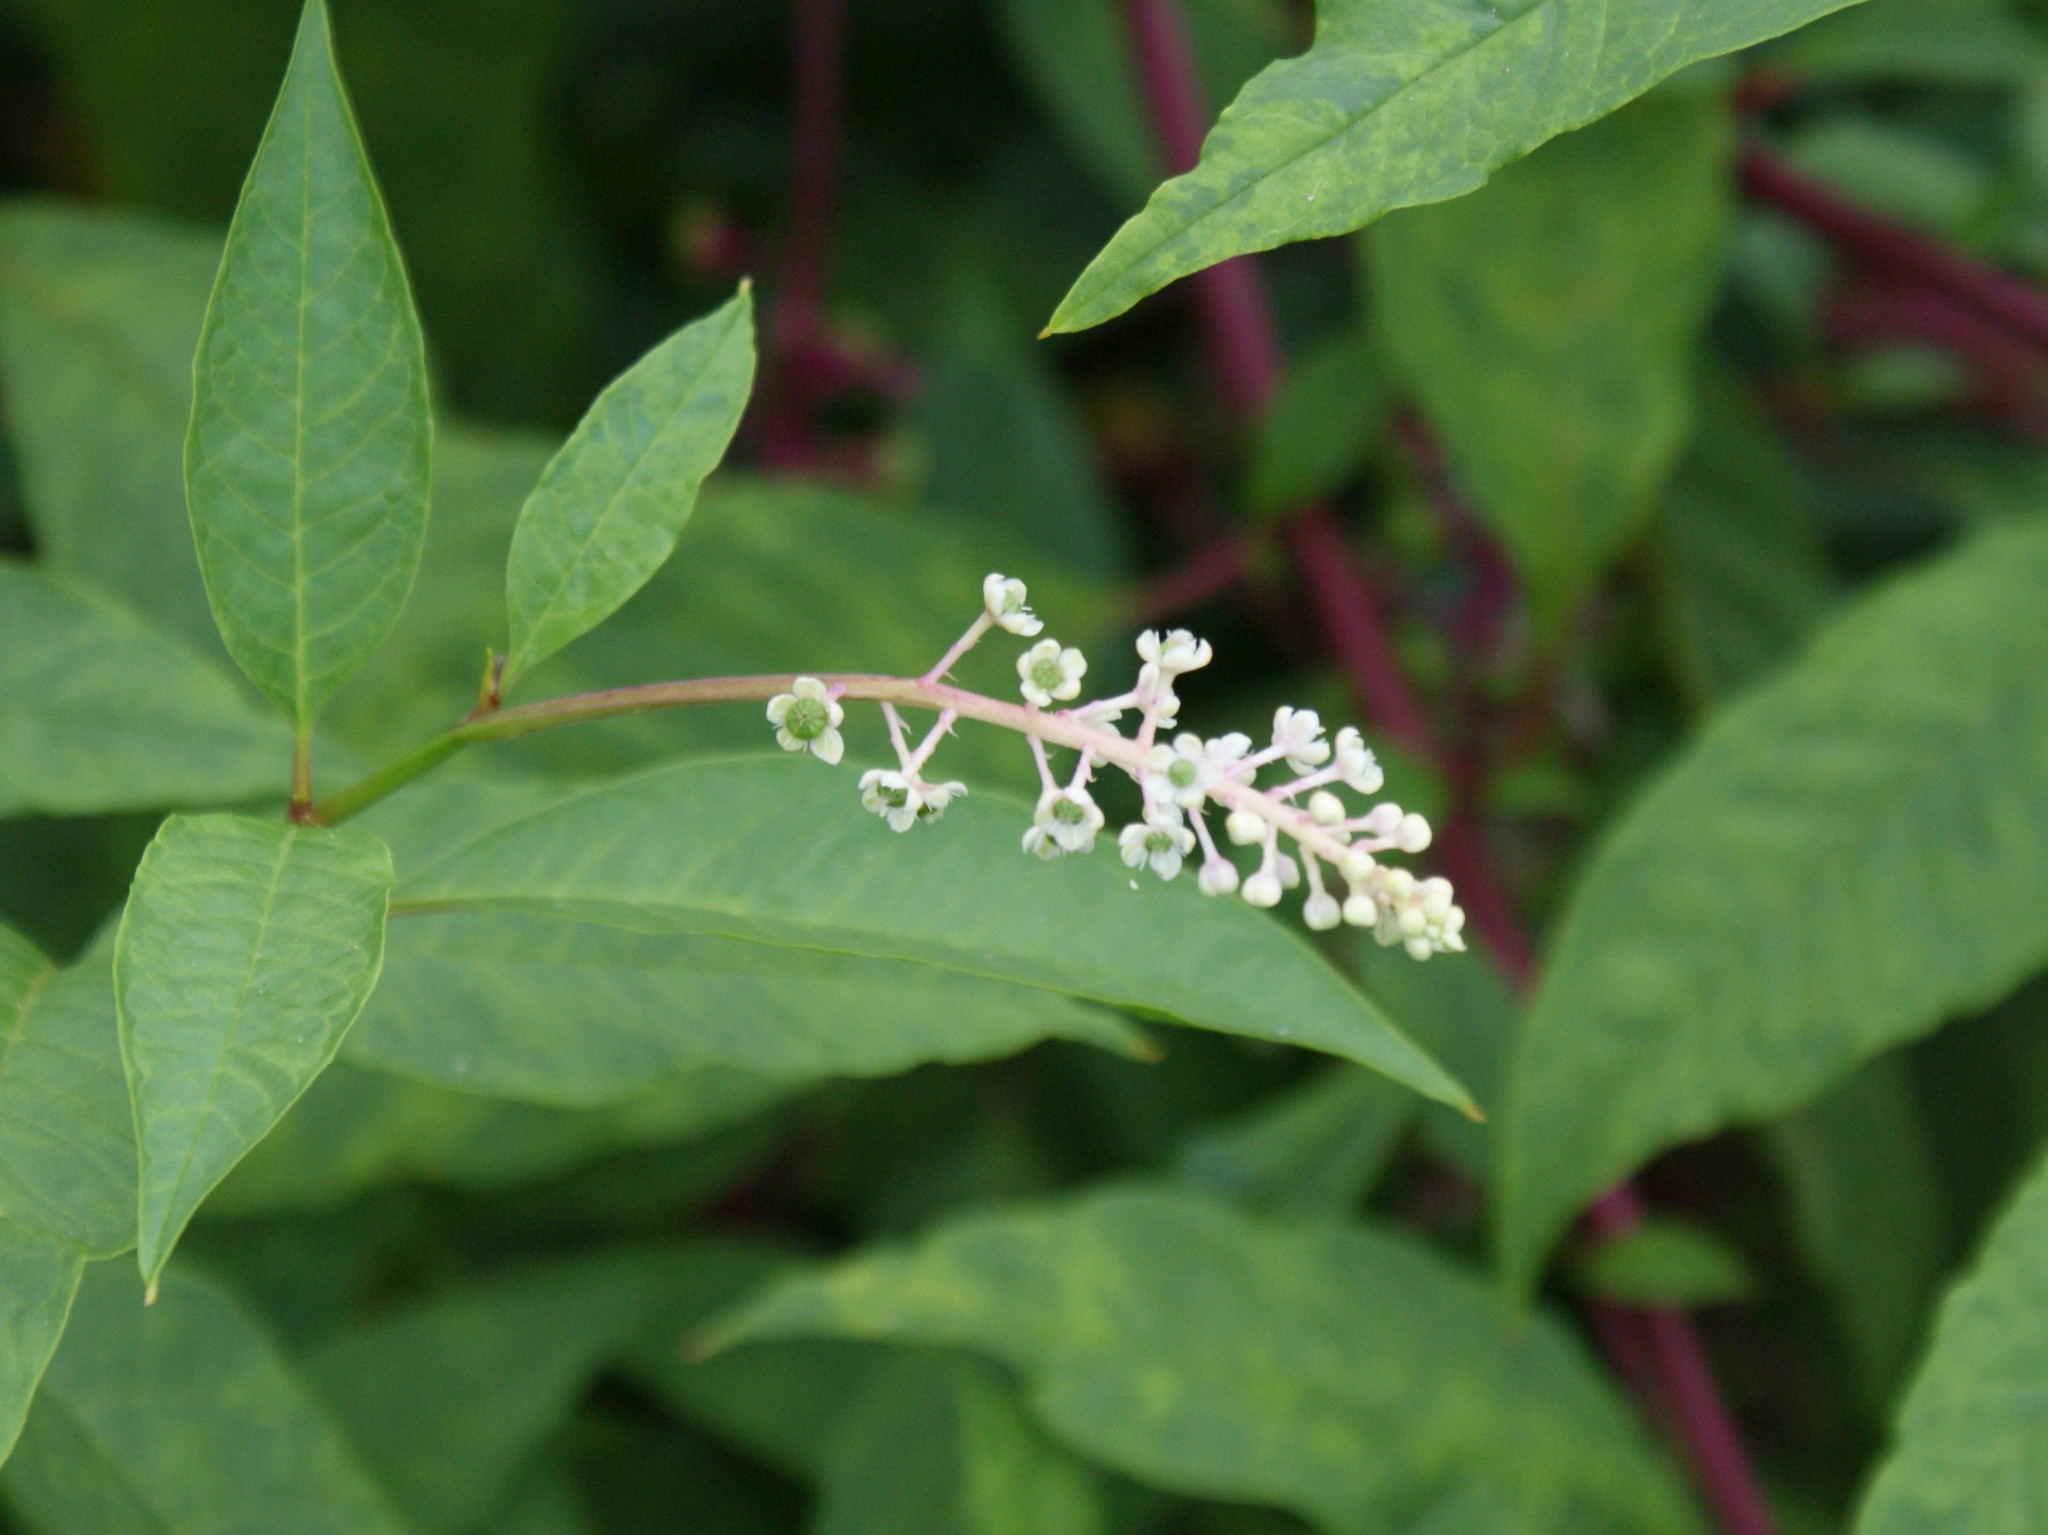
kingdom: Plantae
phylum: Tracheophyta
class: Magnoliopsida
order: Caryophyllales
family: Phytolaccaceae
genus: Phytolacca
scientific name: Phytolacca americana
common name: American pokeweed
